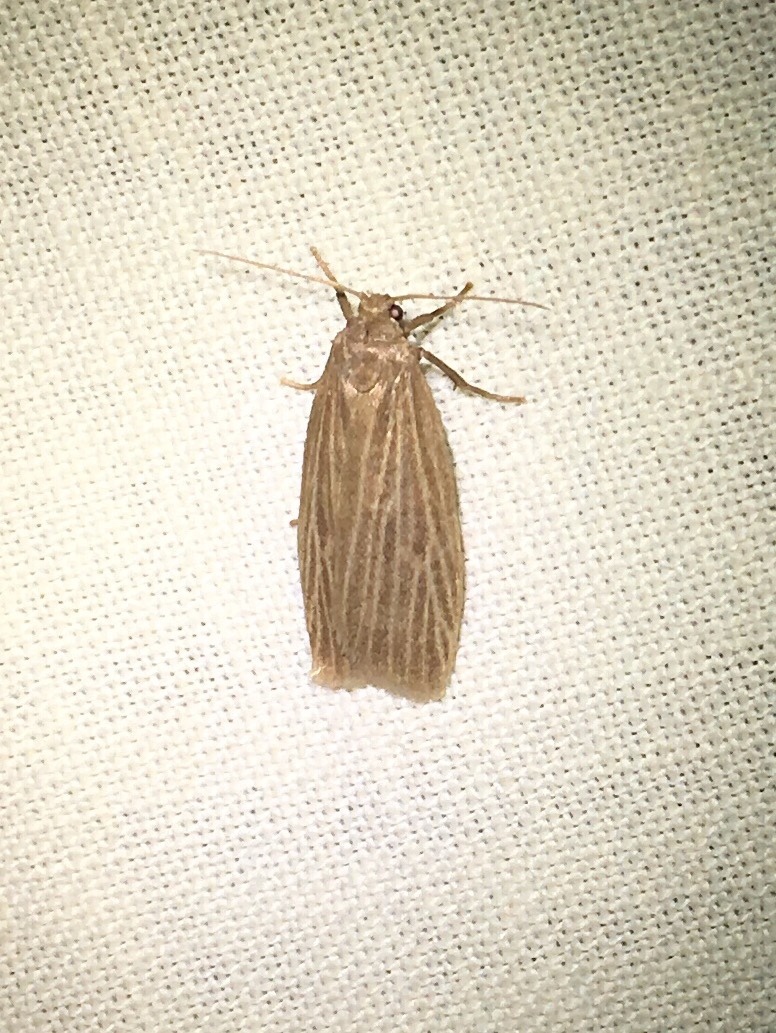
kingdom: Animalia
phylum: Arthropoda
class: Insecta
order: Lepidoptera
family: Erebidae
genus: Crambidia
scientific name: Crambidia pallida
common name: Pale lichen moth
